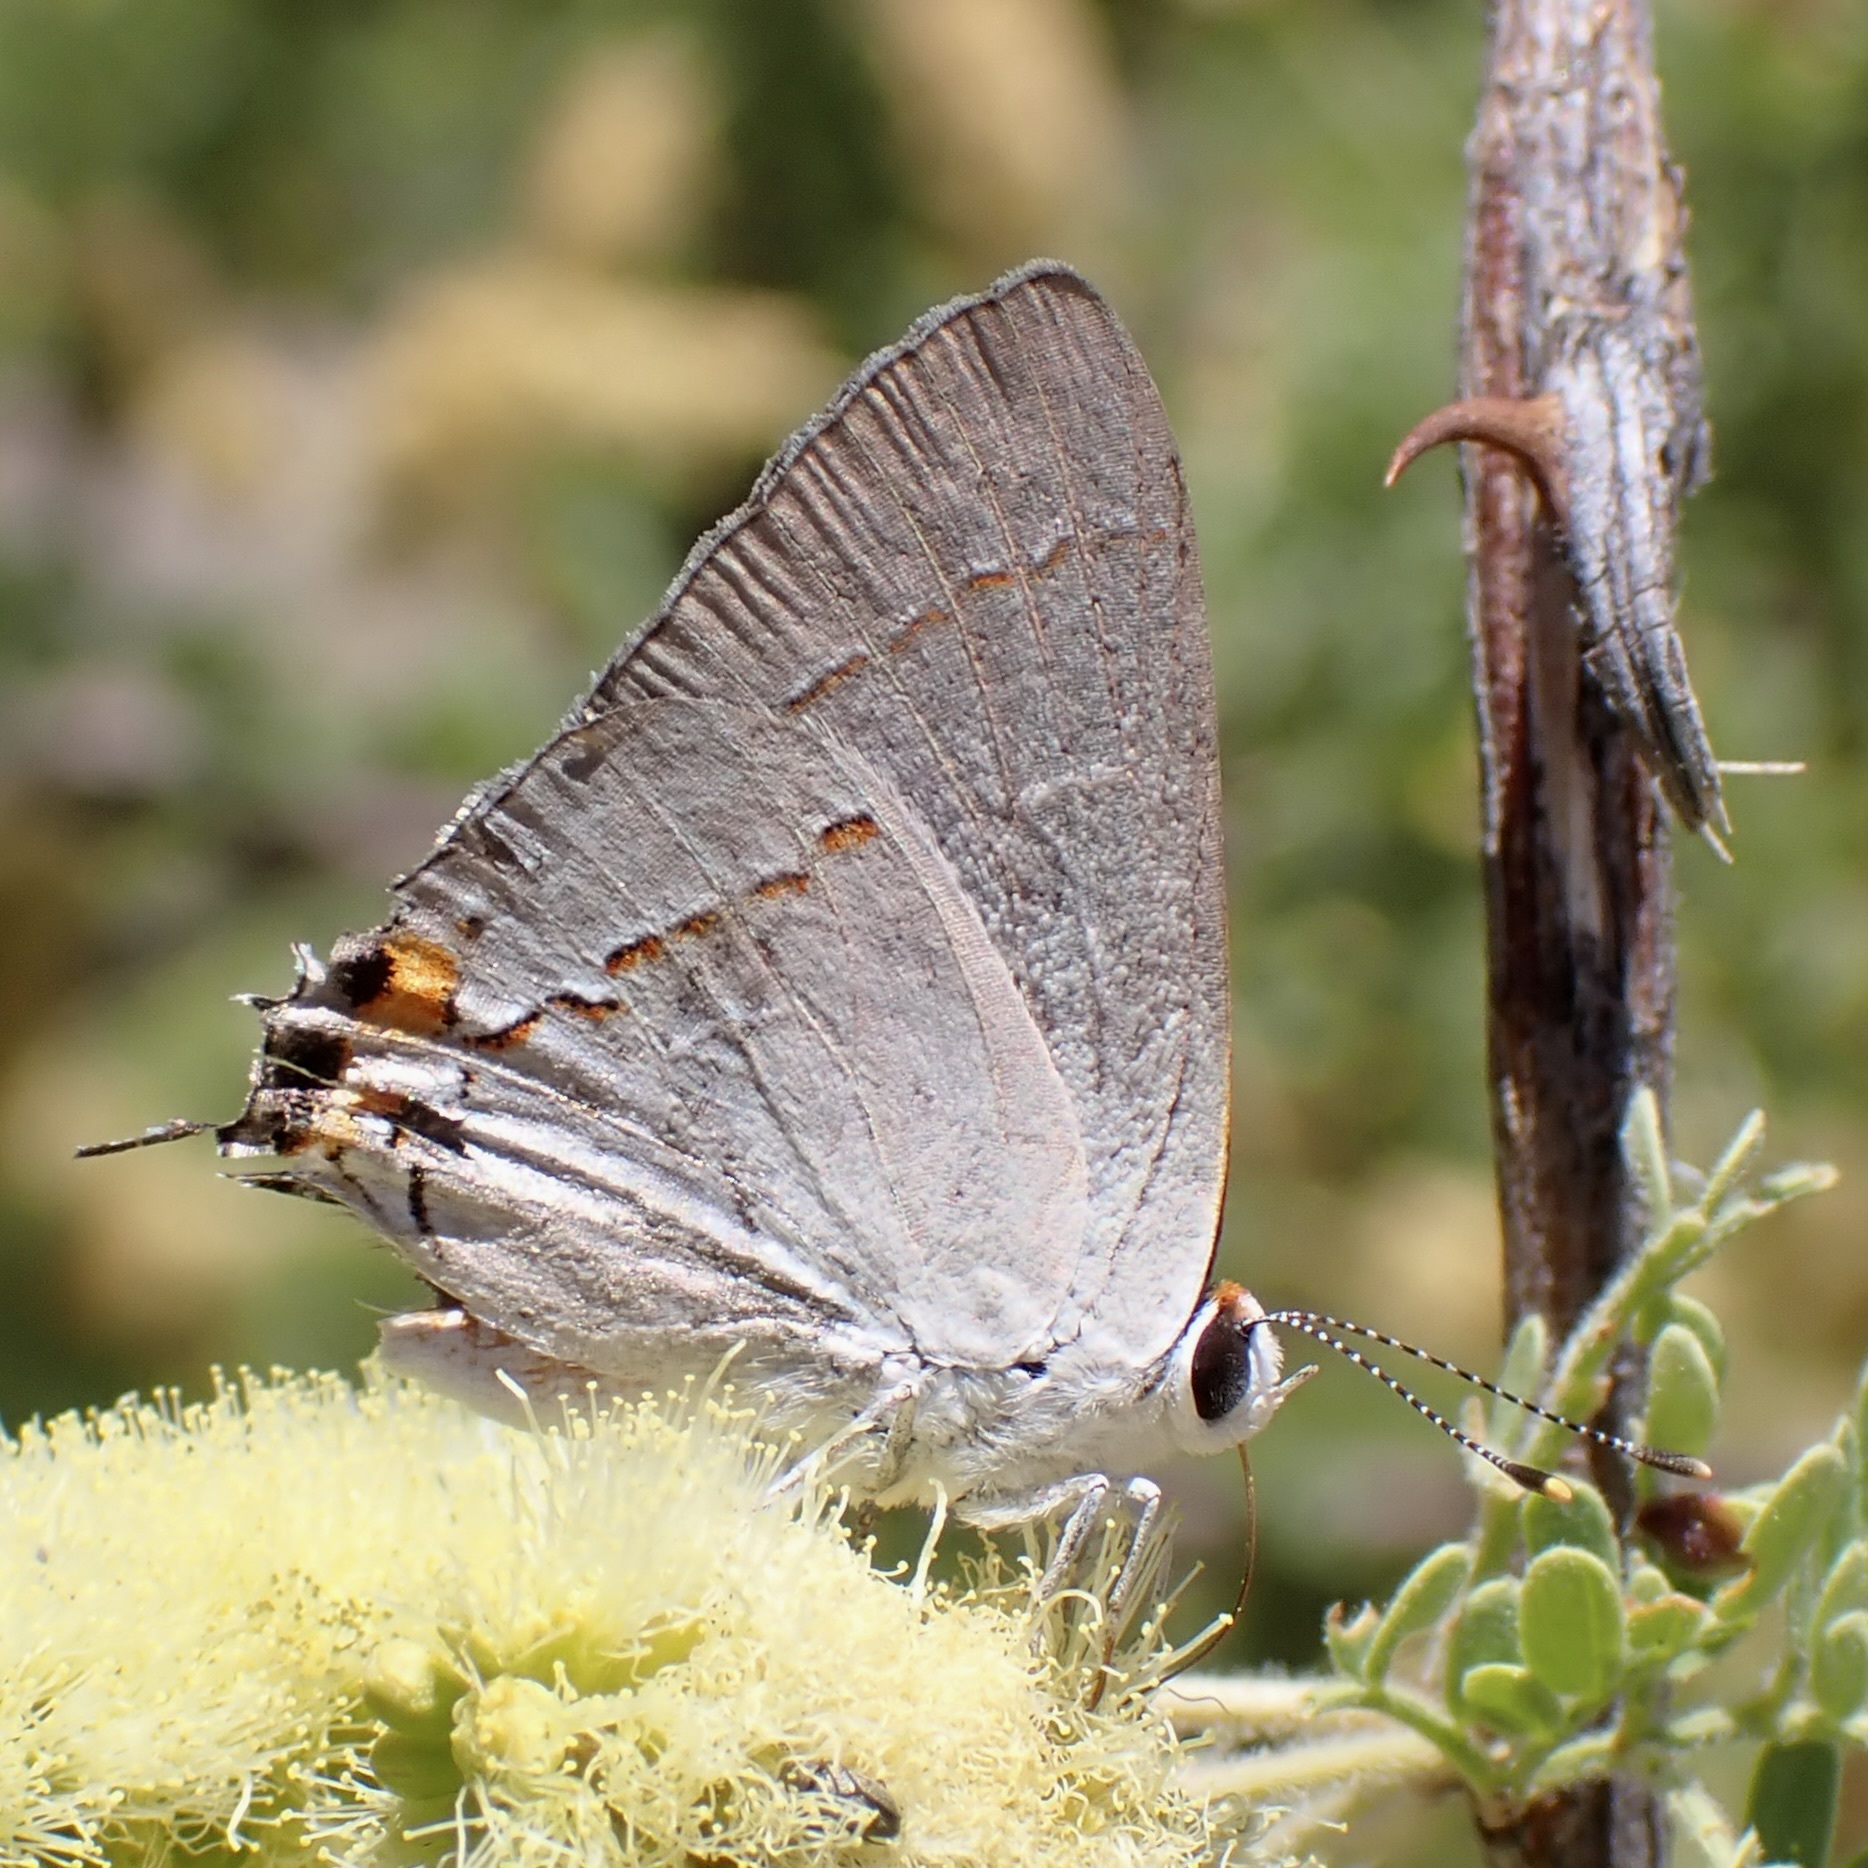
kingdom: Animalia
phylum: Arthropoda
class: Insecta
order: Lepidoptera
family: Lycaenidae
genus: Strymon
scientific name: Strymon melinus
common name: Gray hairstreak
